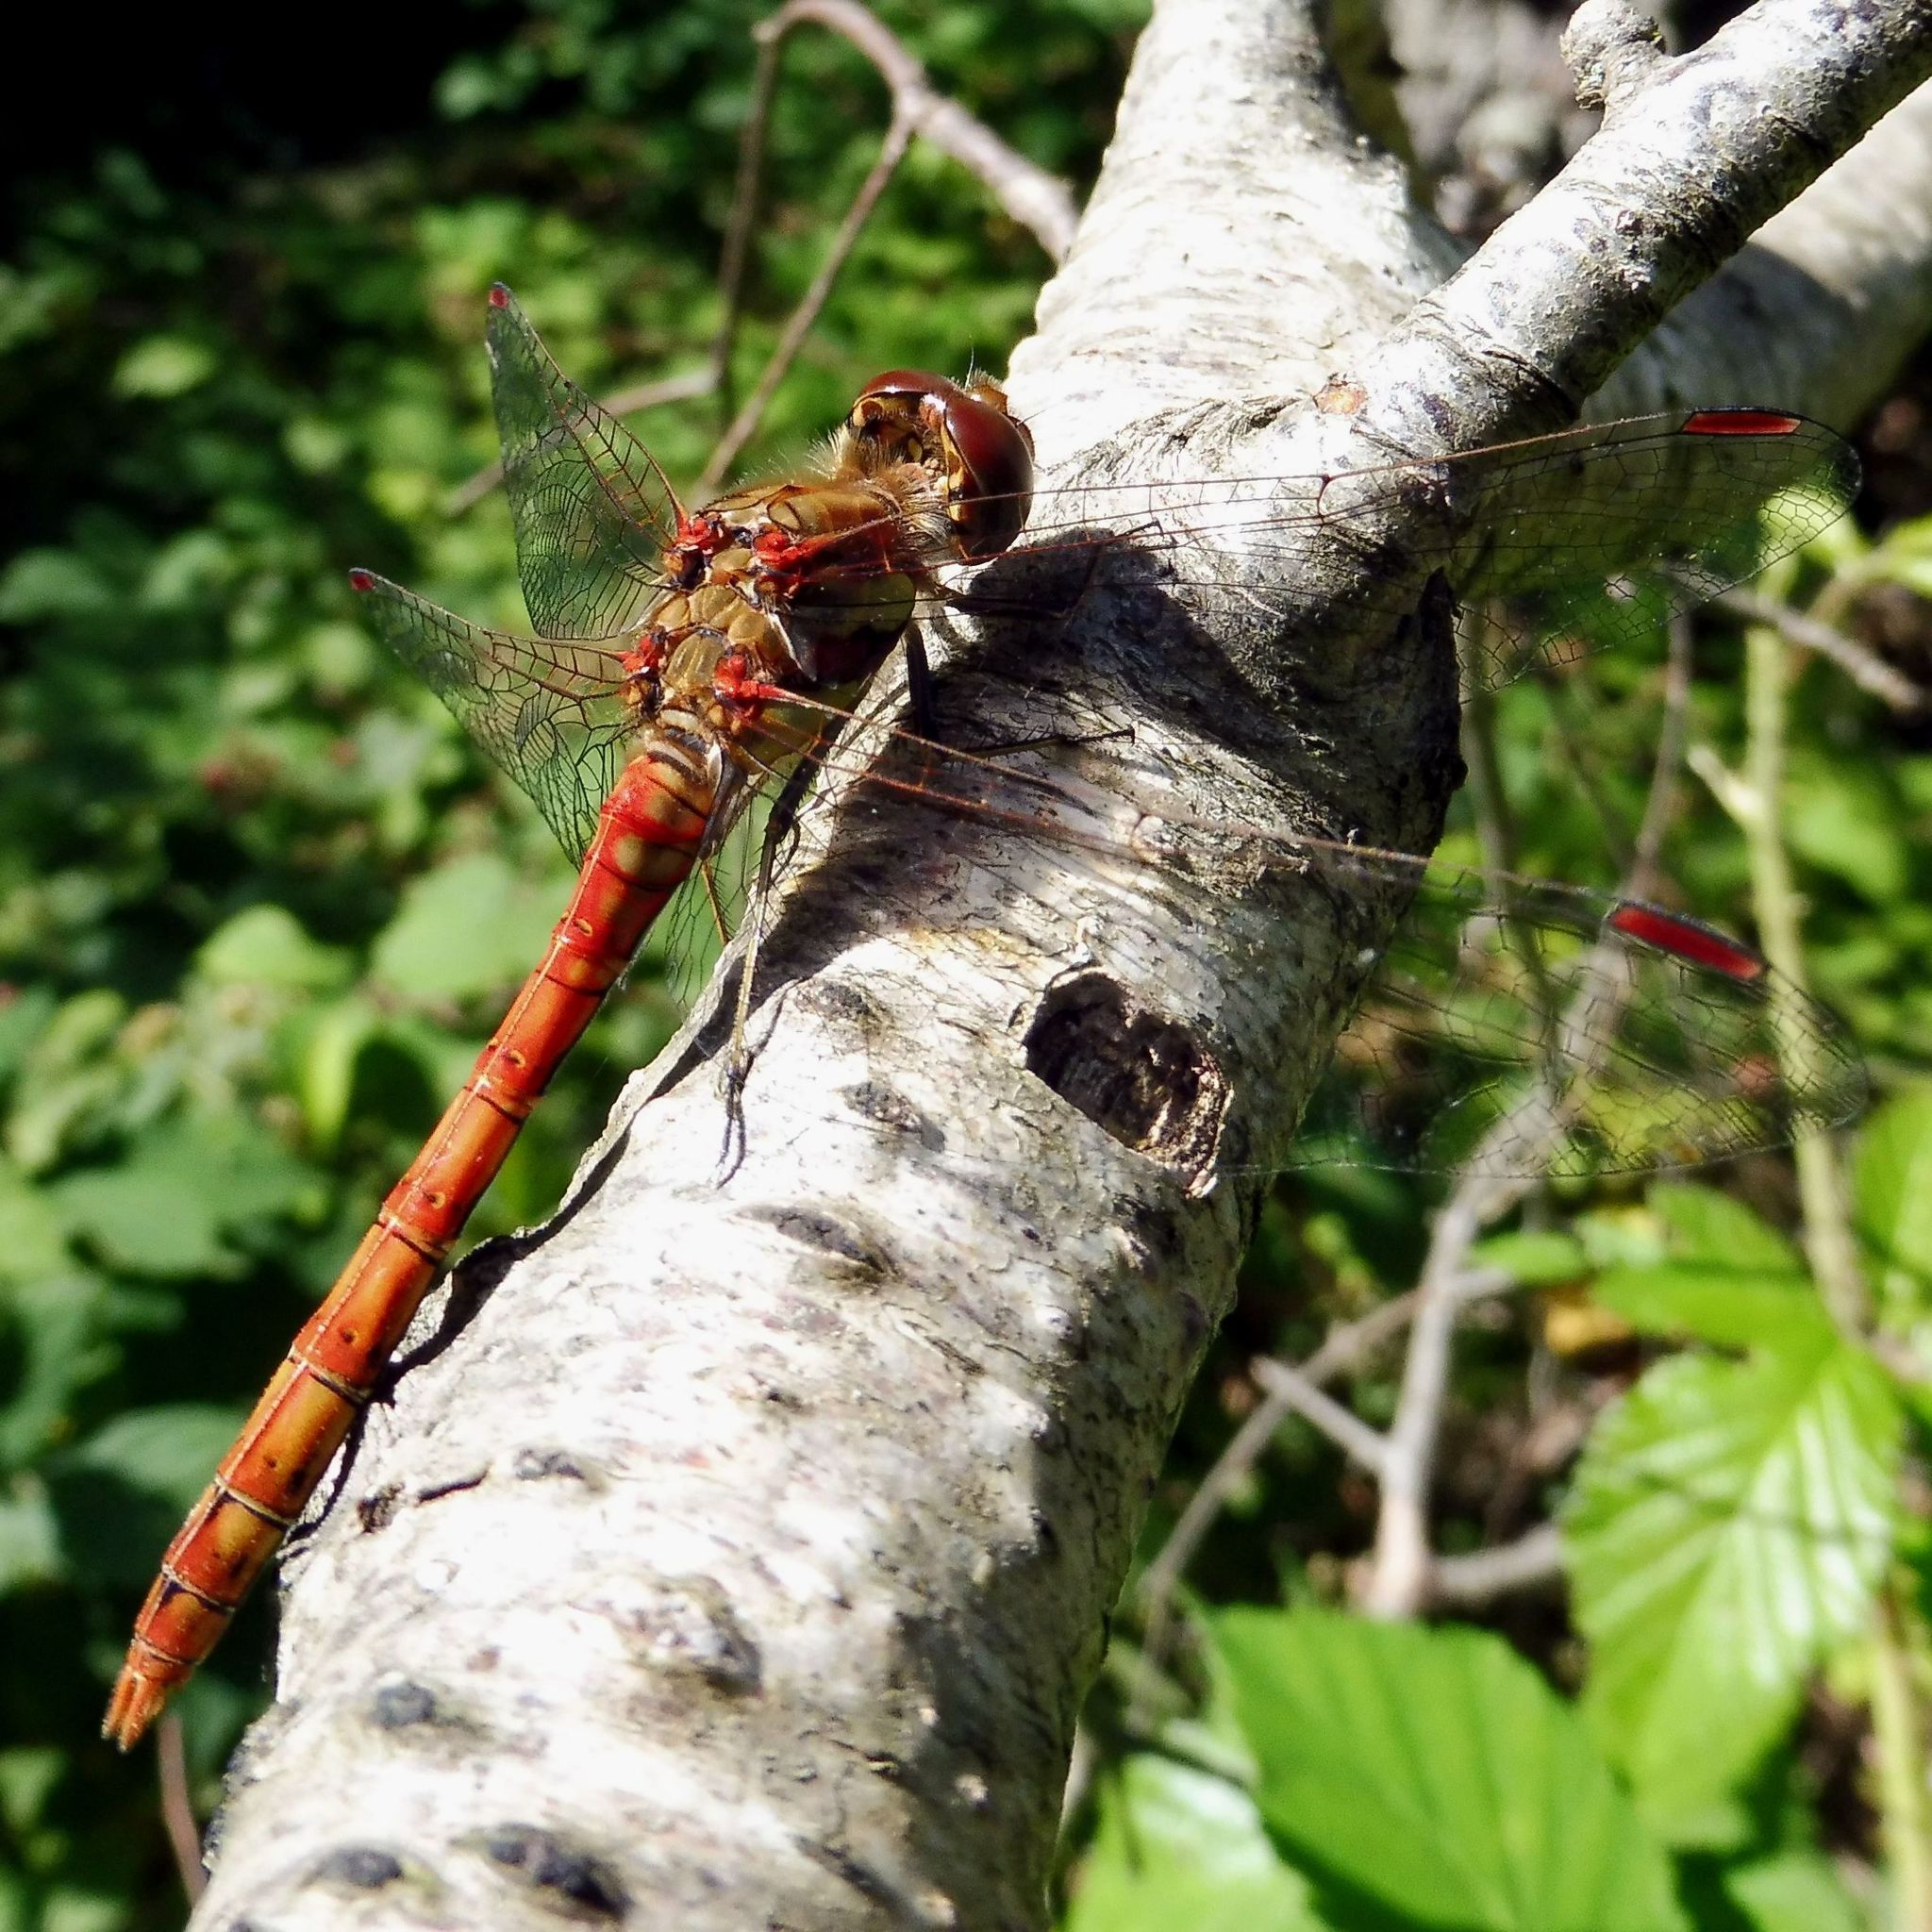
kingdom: Animalia
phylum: Arthropoda
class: Insecta
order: Odonata
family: Libellulidae
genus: Sympetrum
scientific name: Sympetrum striolatum
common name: Common darter
